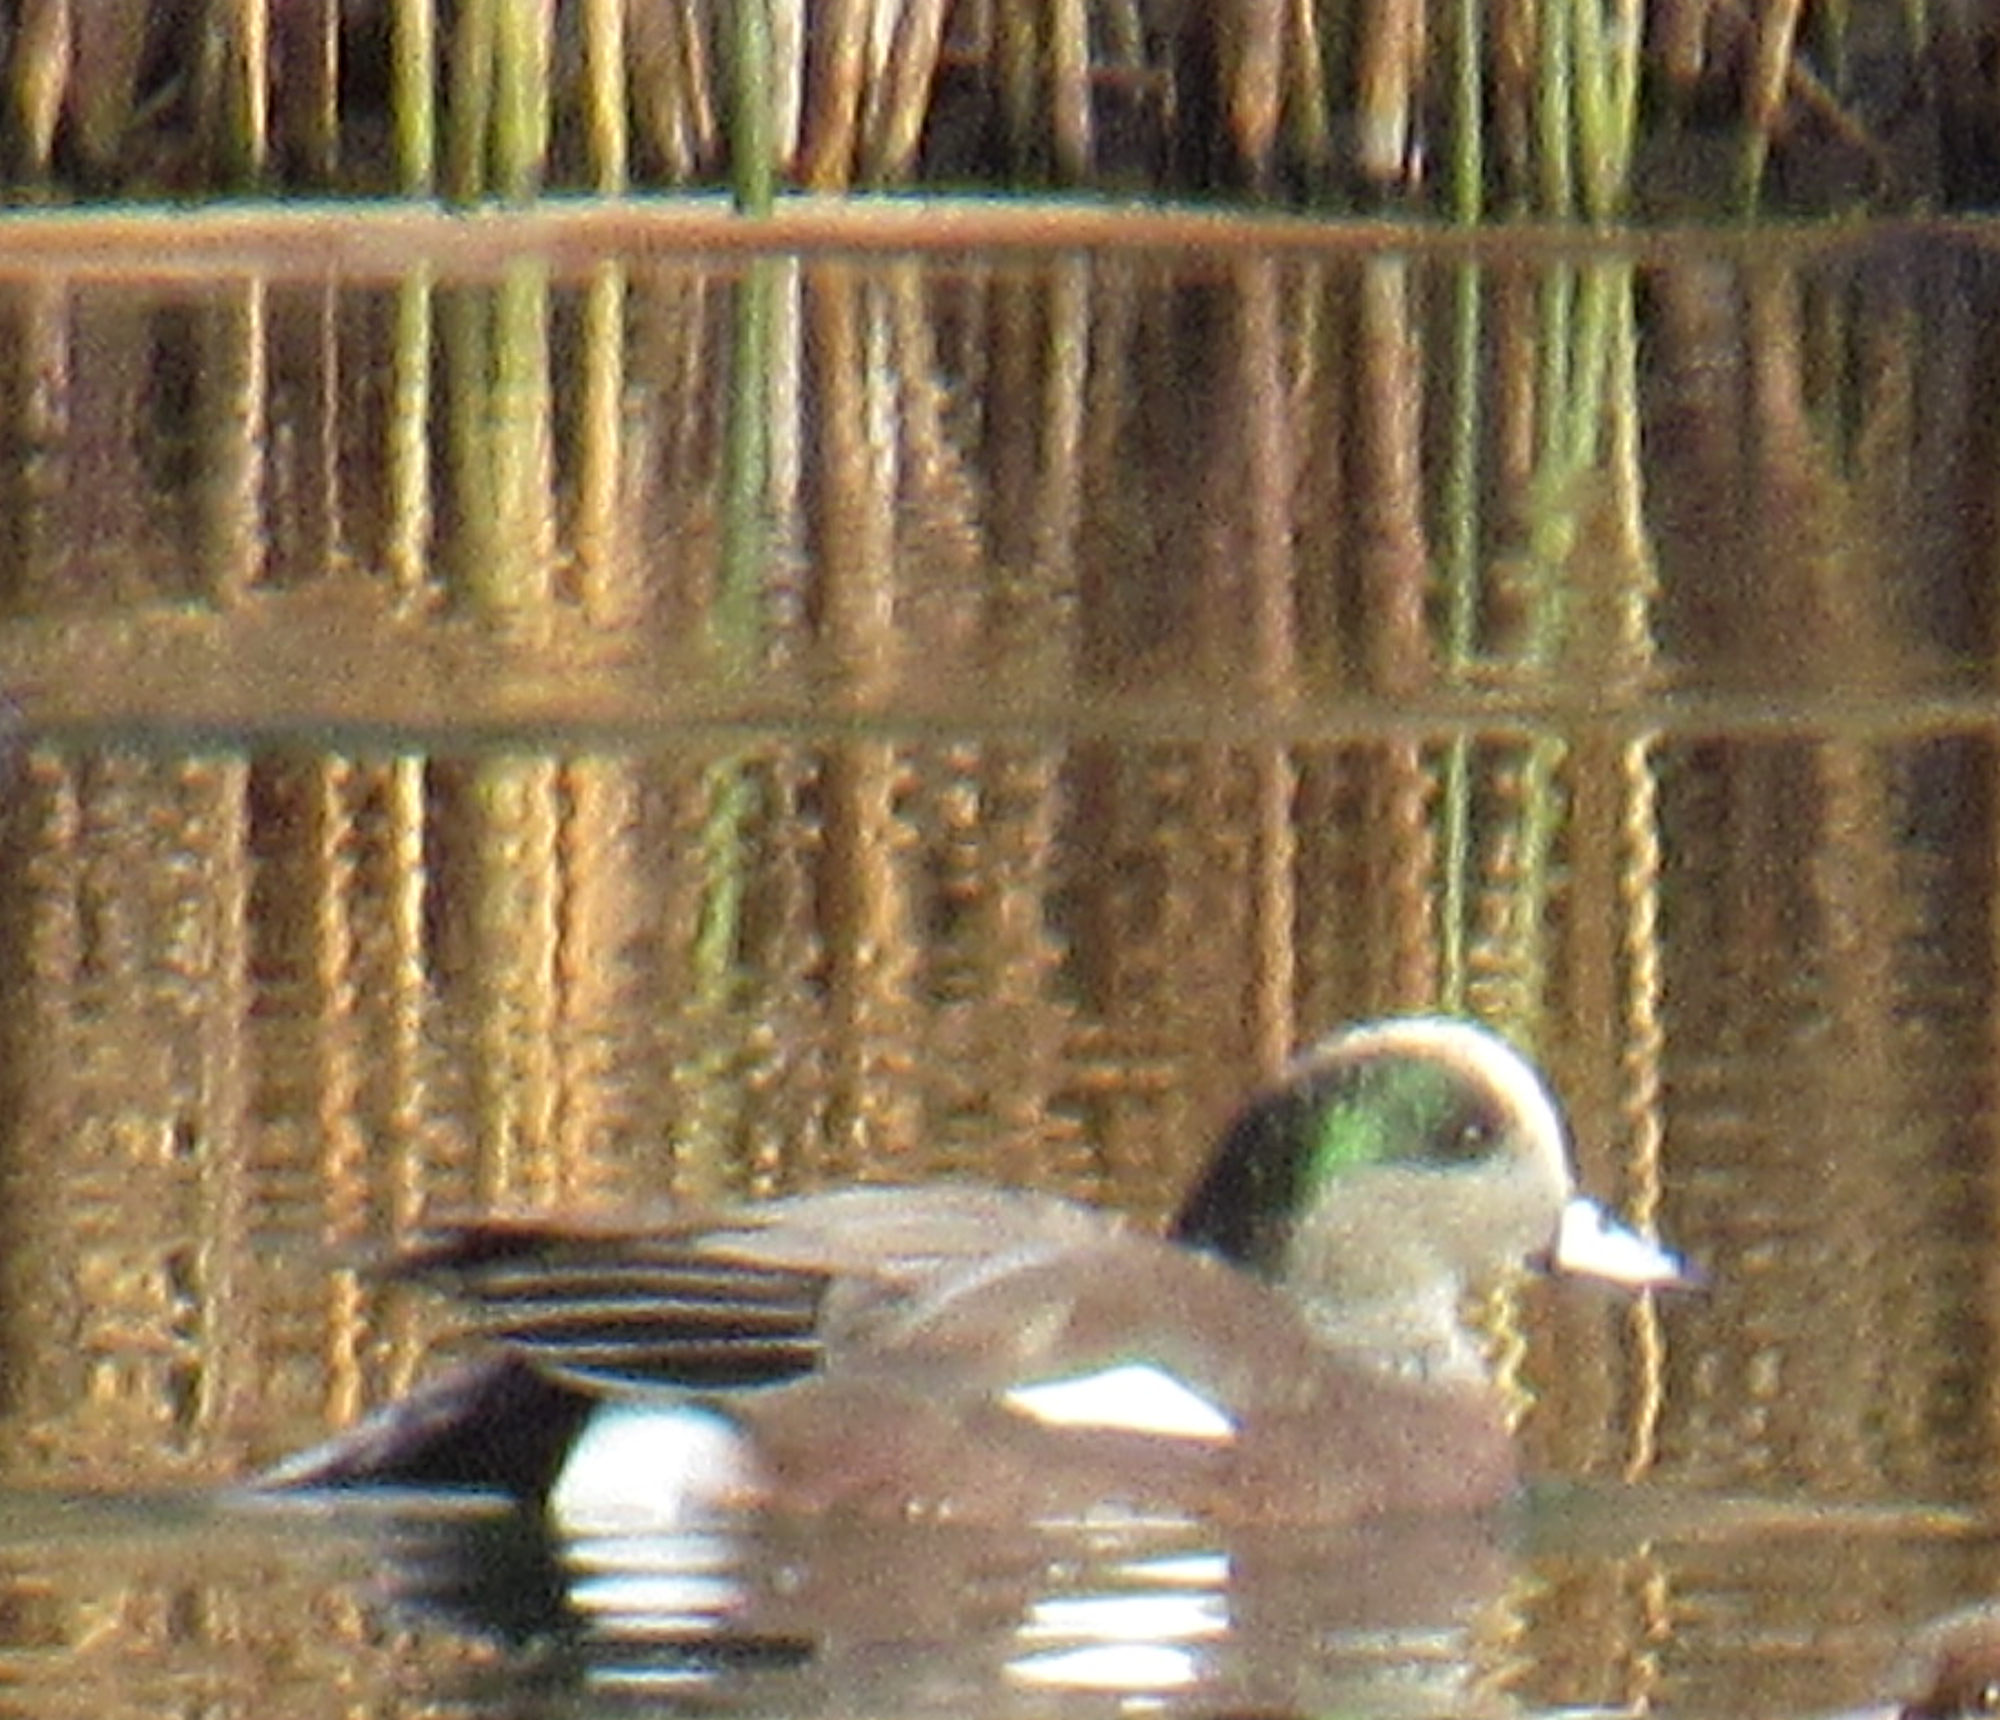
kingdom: Animalia
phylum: Chordata
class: Aves
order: Anseriformes
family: Anatidae
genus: Mareca
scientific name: Mareca americana
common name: American wigeon
